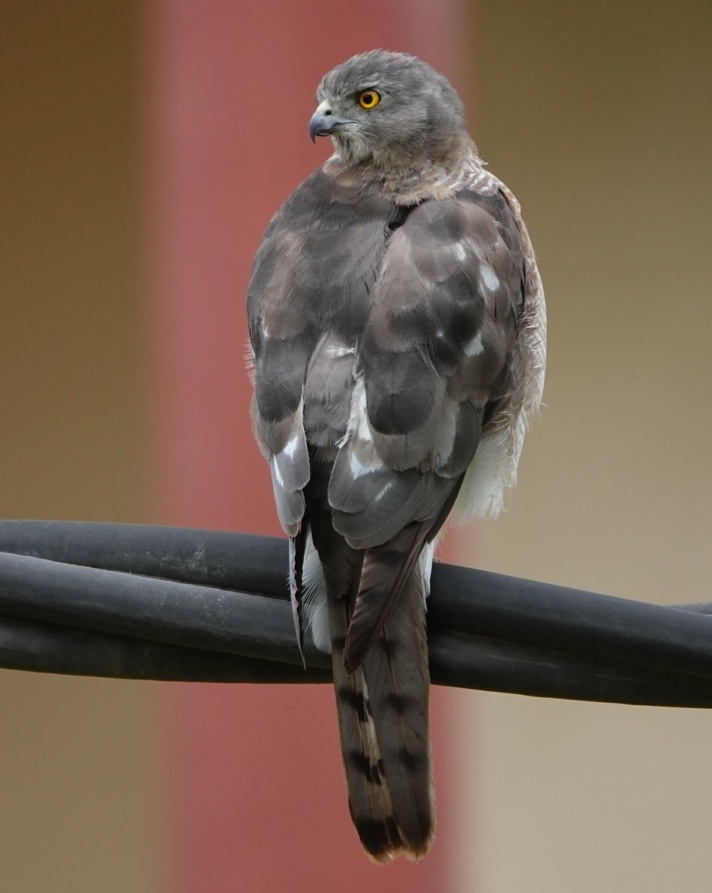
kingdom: Animalia
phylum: Chordata
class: Aves
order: Accipitriformes
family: Accipitridae
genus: Accipiter
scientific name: Accipiter badius
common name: Shikra
